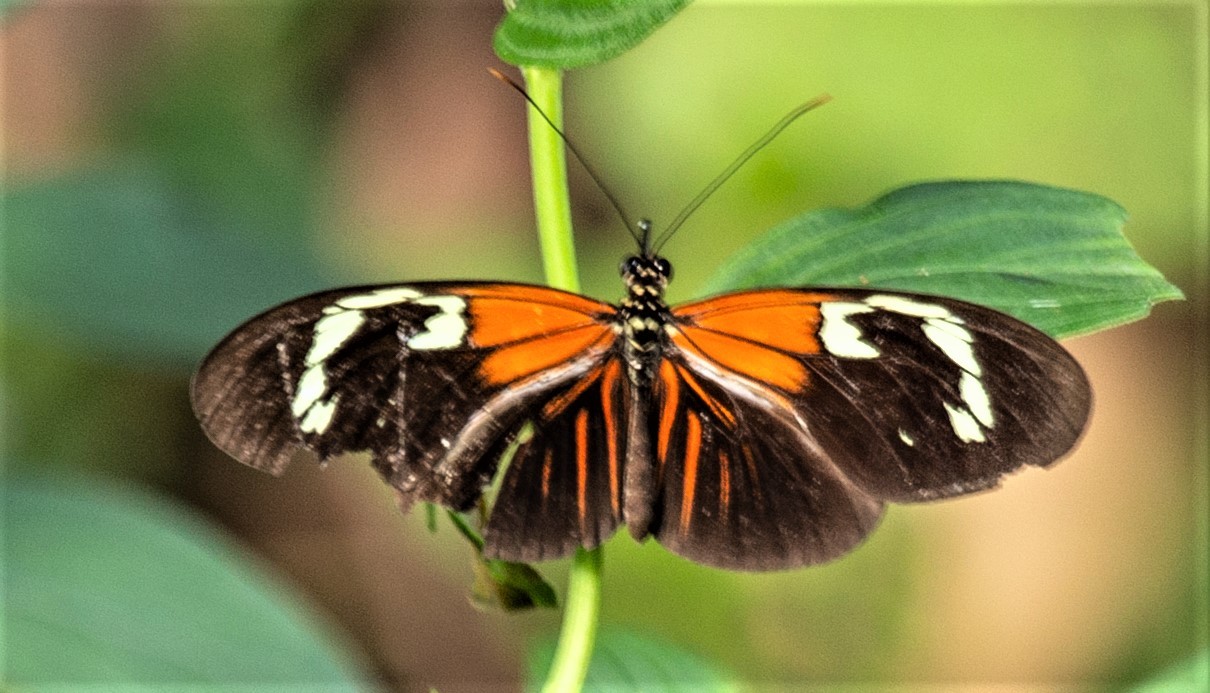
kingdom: Animalia
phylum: Arthropoda
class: Insecta
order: Lepidoptera
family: Nymphalidae
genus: Heliconius
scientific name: Heliconius erato
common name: Common patch longwing
